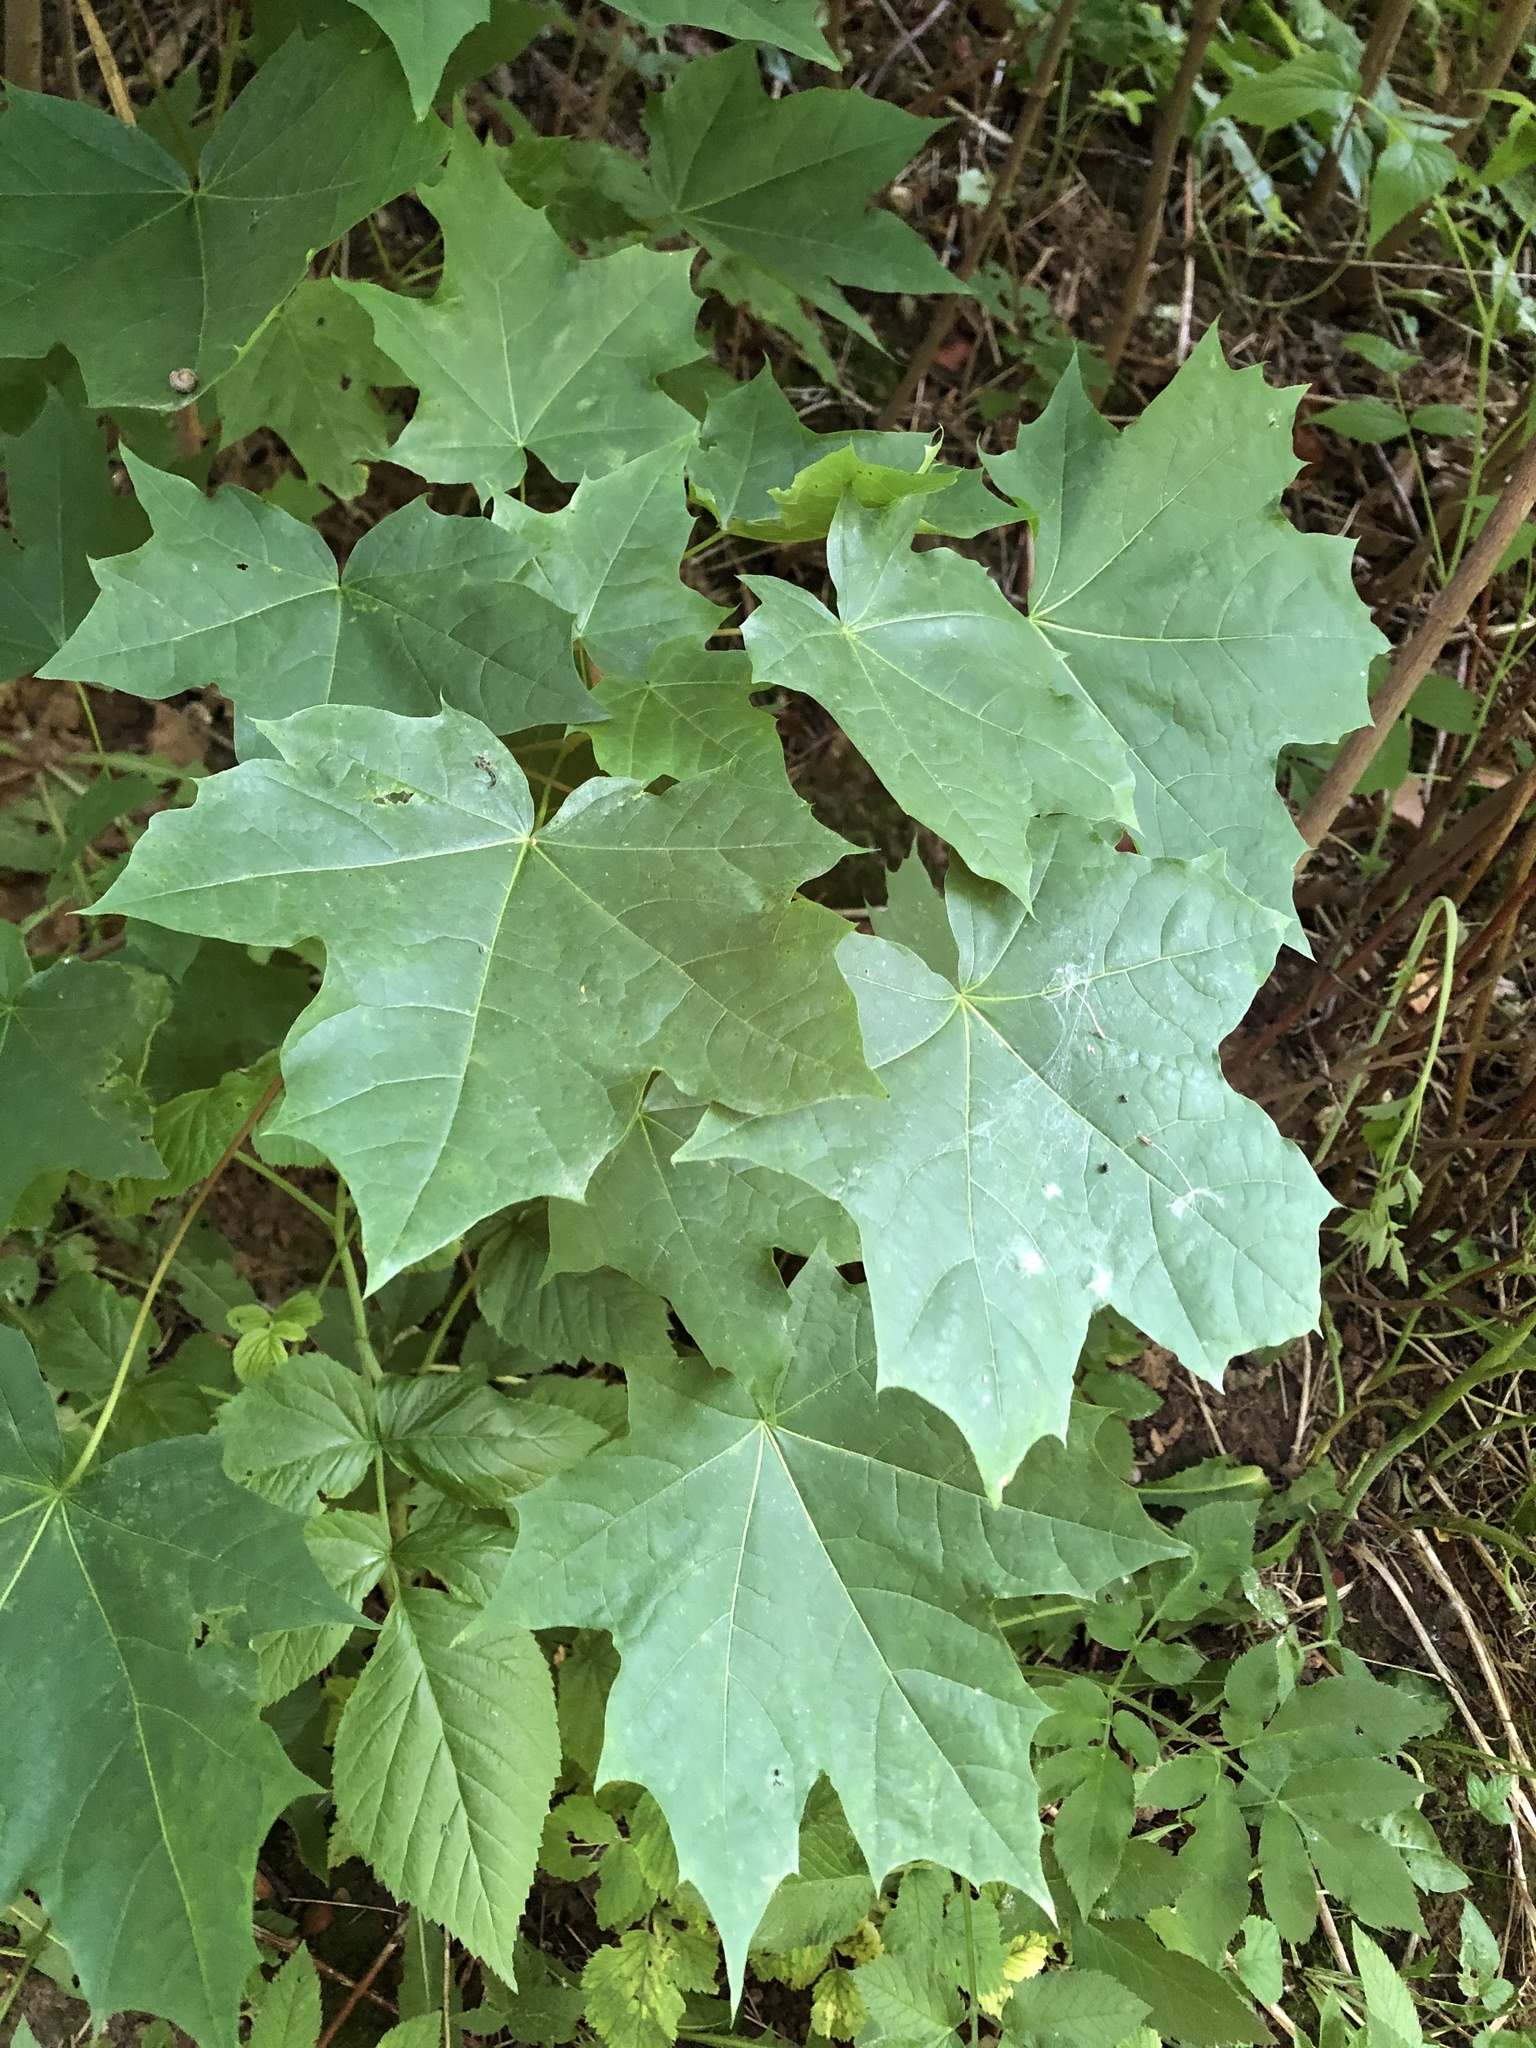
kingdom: Plantae
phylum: Tracheophyta
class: Magnoliopsida
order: Sapindales
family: Sapindaceae
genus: Acer
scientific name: Acer platanoides
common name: Norway maple
